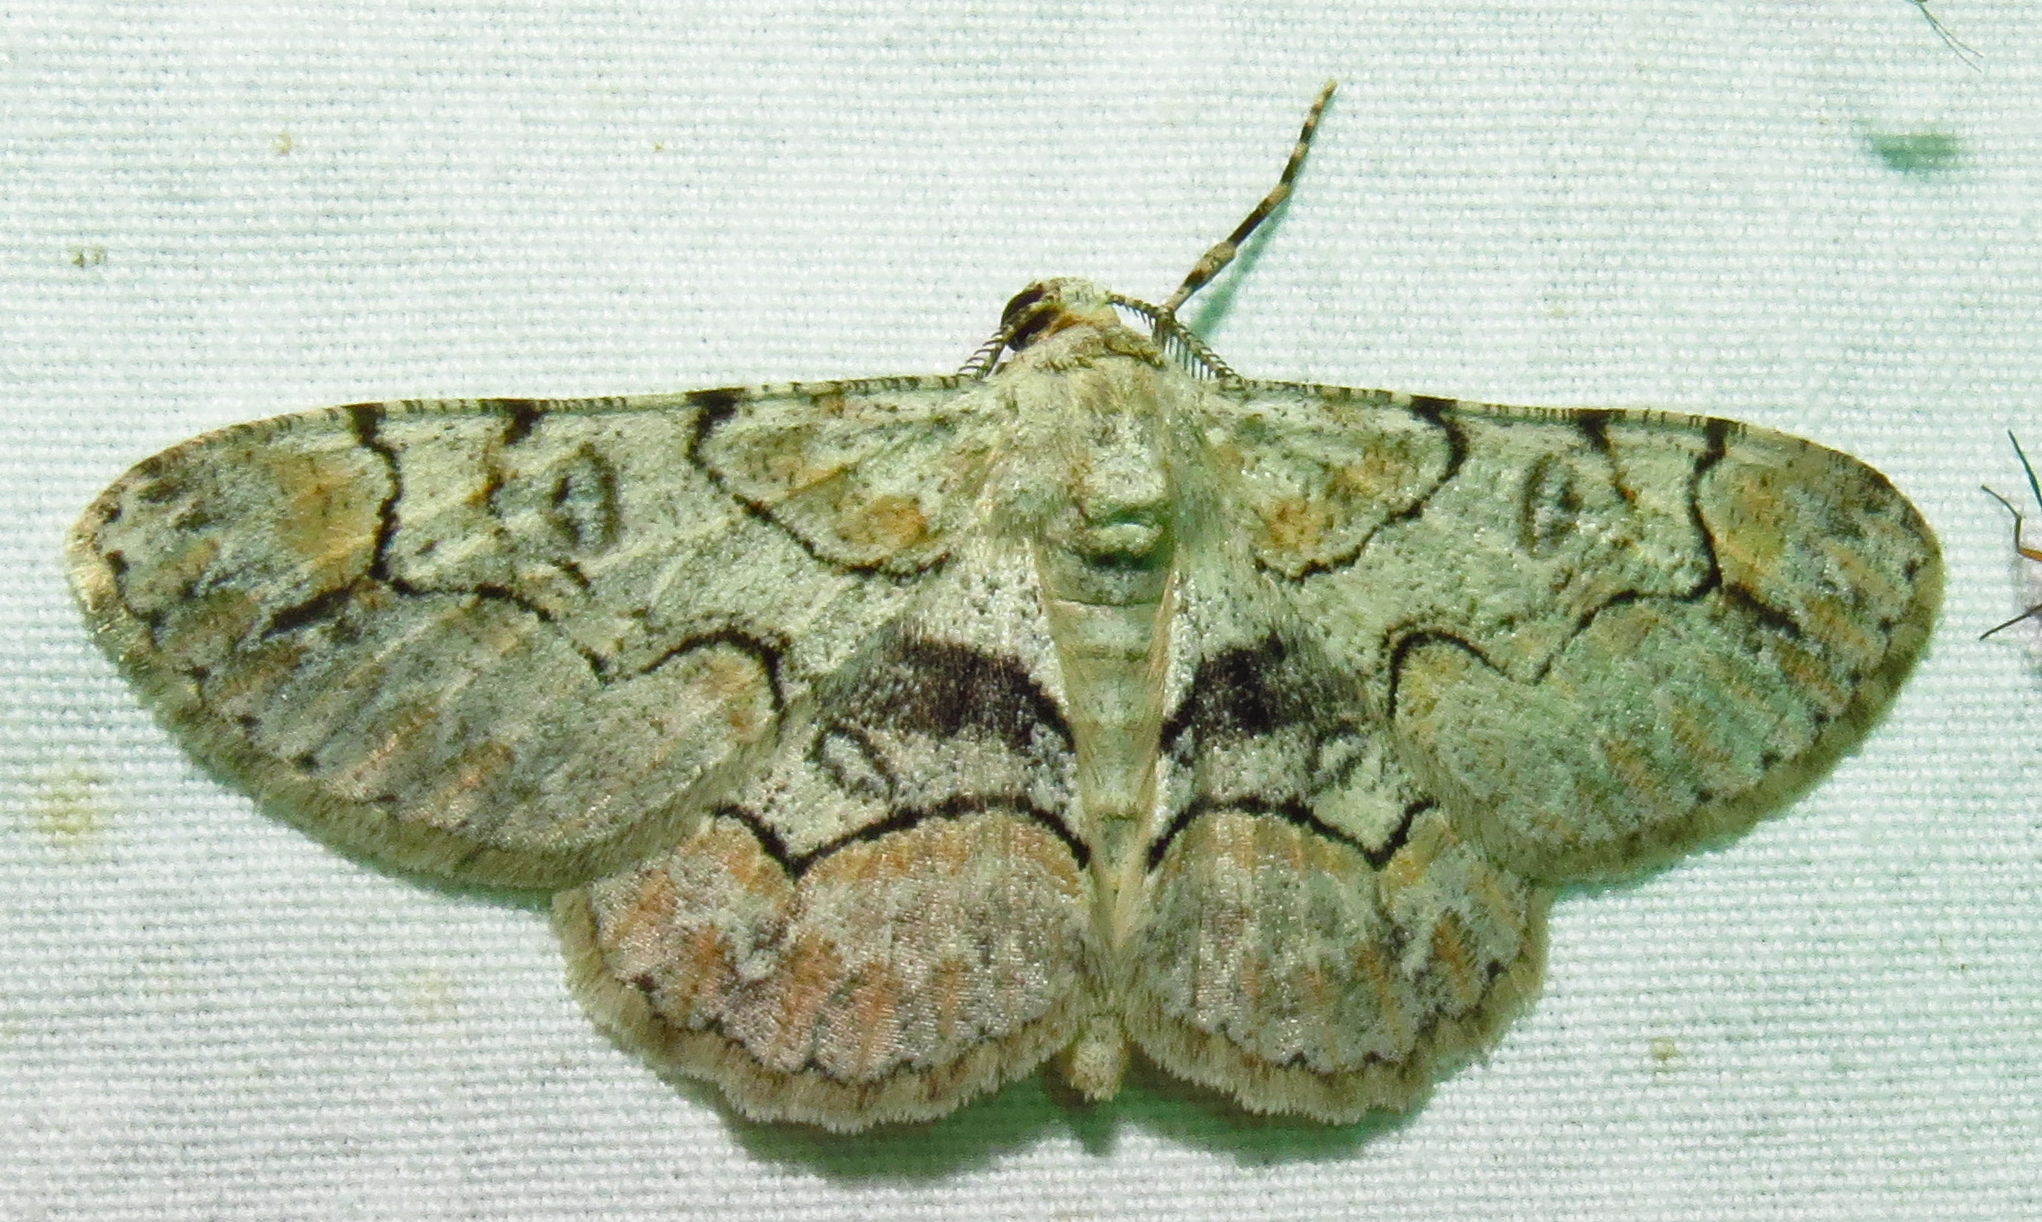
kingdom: Animalia
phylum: Arthropoda
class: Insecta
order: Lepidoptera
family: Geometridae
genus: Iridopsis
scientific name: Iridopsis larvaria
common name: Bent-line gray
